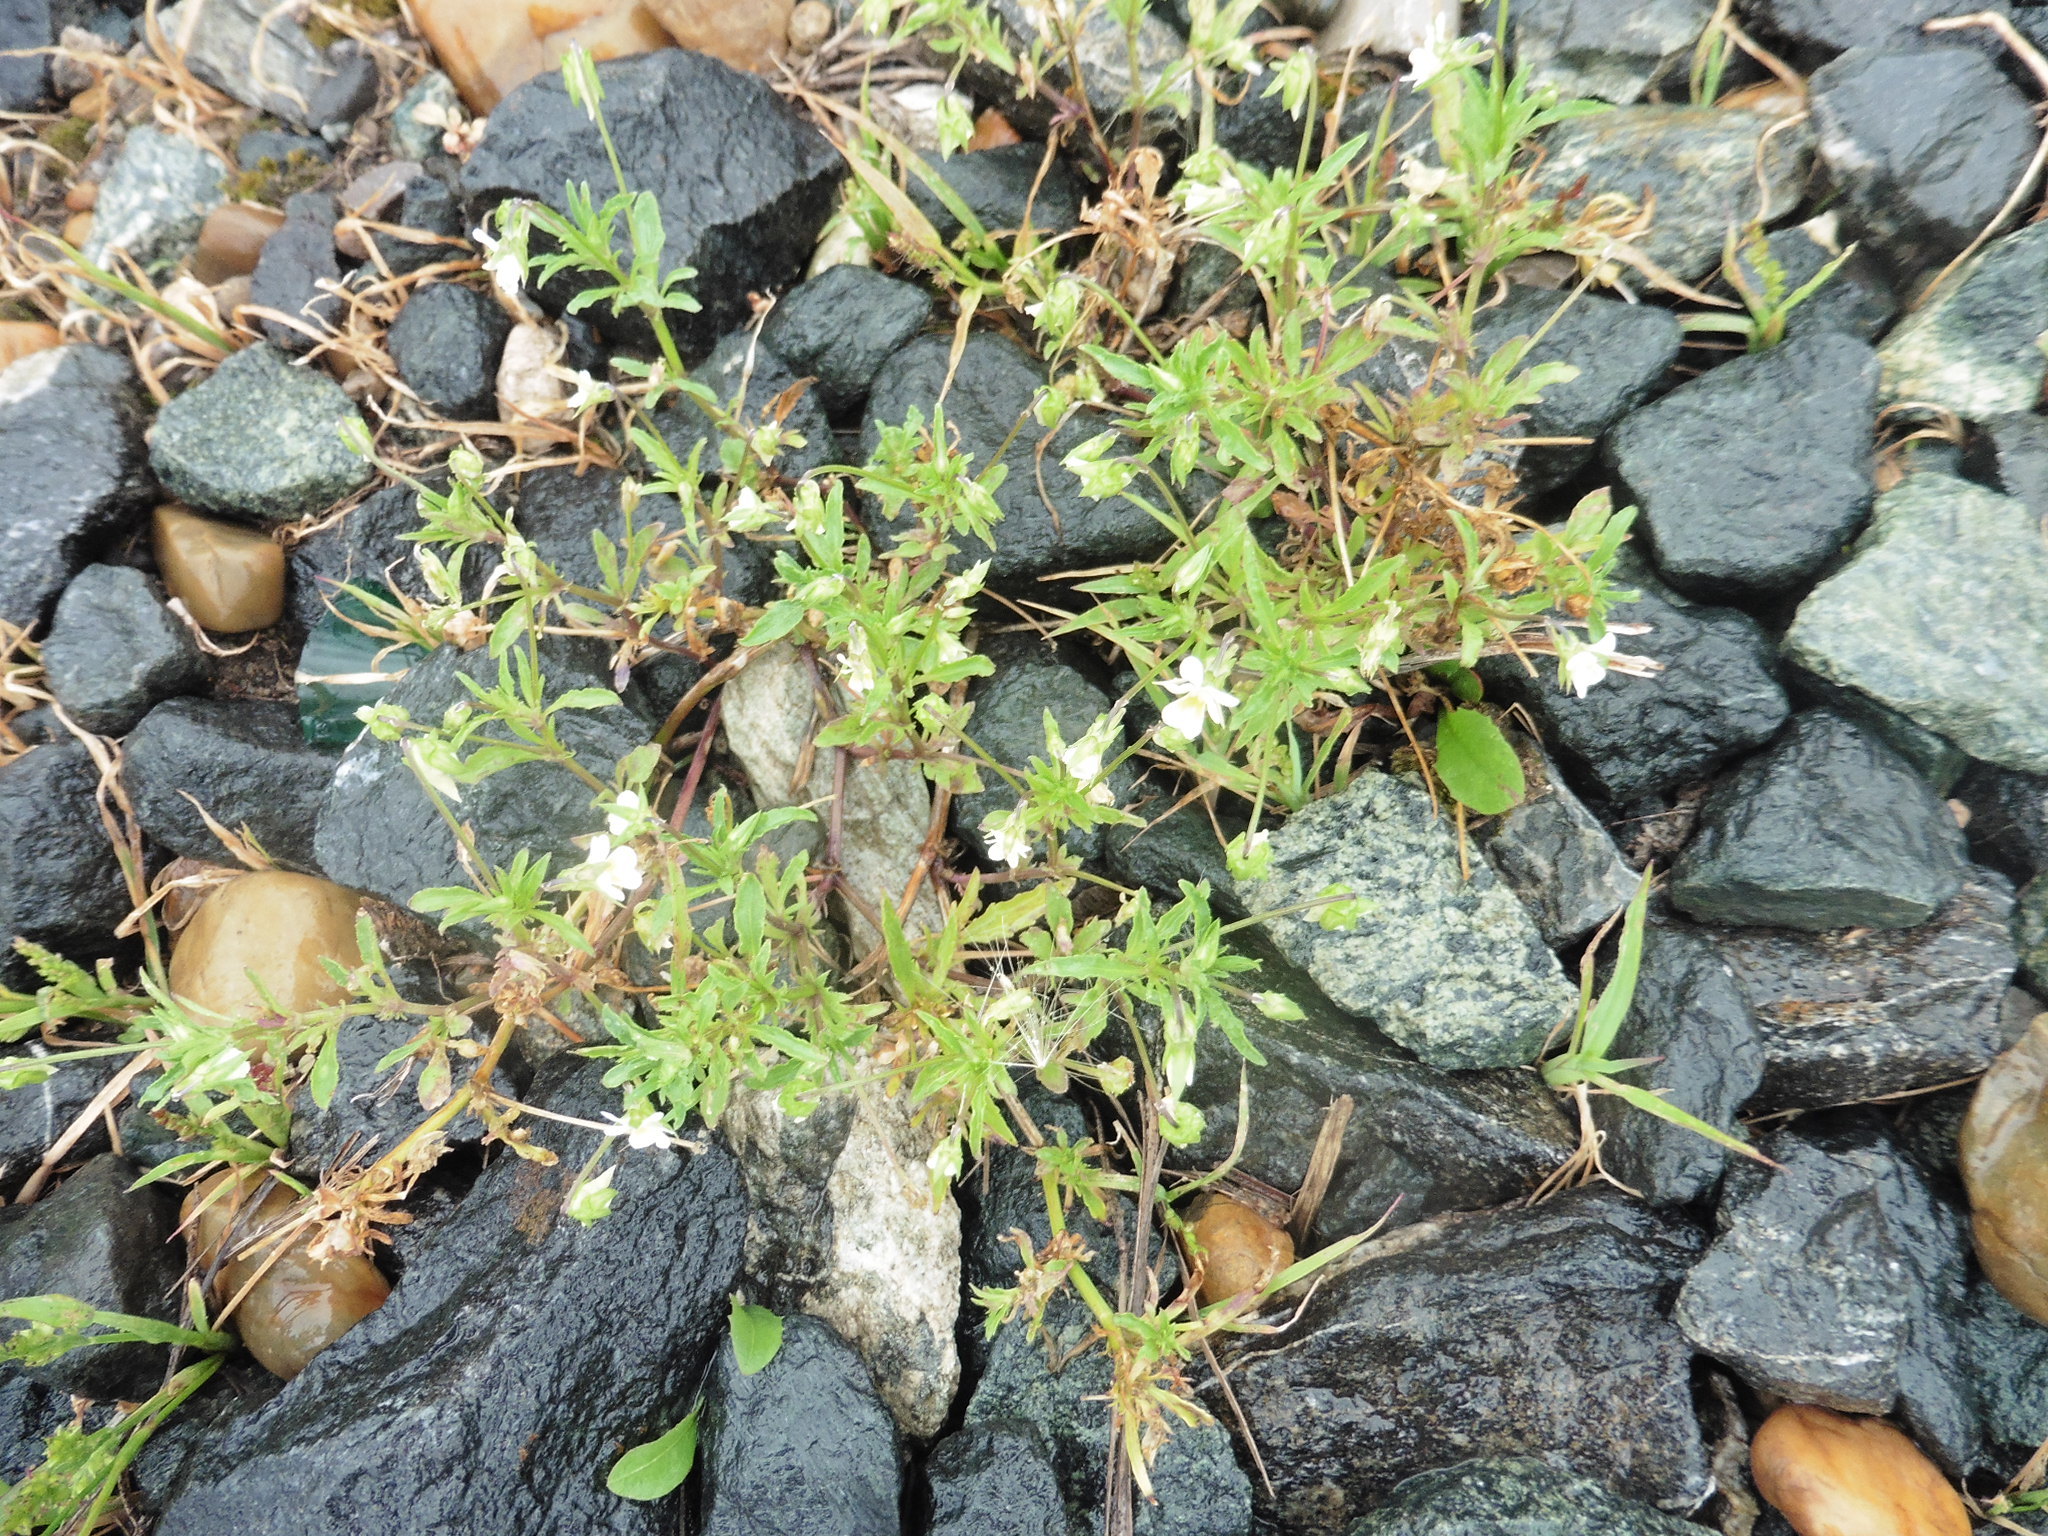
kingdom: Plantae
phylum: Tracheophyta
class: Magnoliopsida
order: Malpighiales
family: Violaceae
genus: Viola
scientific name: Viola arvensis
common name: Field pansy
